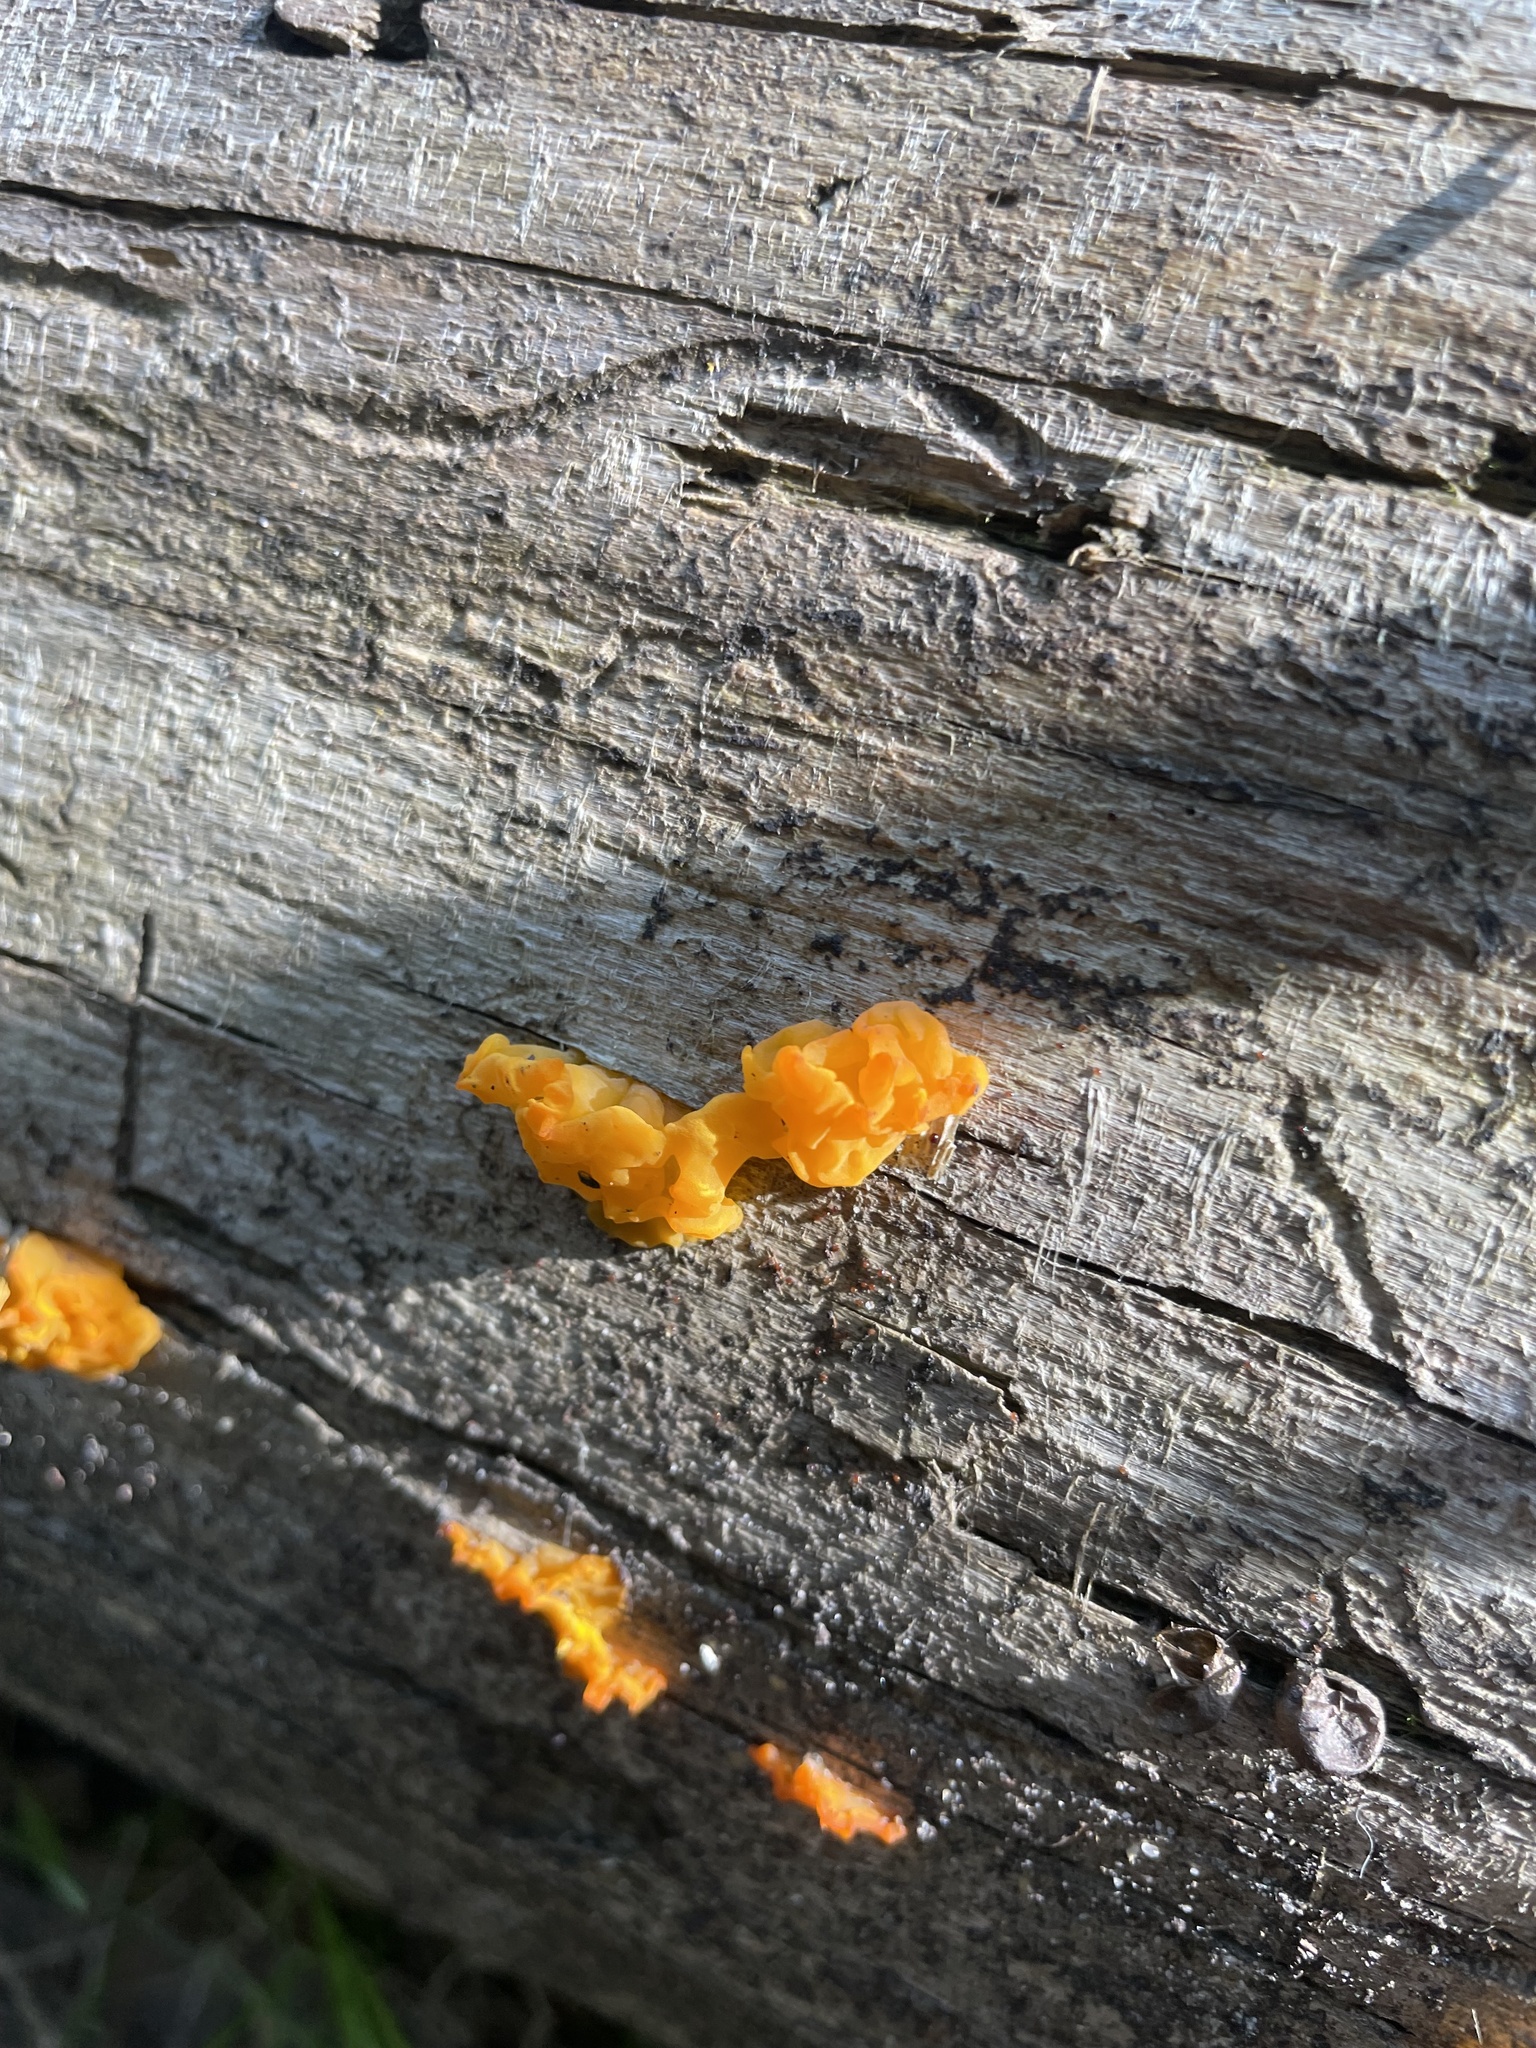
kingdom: Fungi
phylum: Basidiomycota
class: Dacrymycetes
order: Dacrymycetales
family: Dacrymycetaceae
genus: Dacrymyces
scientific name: Dacrymyces chrysospermus
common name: Orange jelly spot
